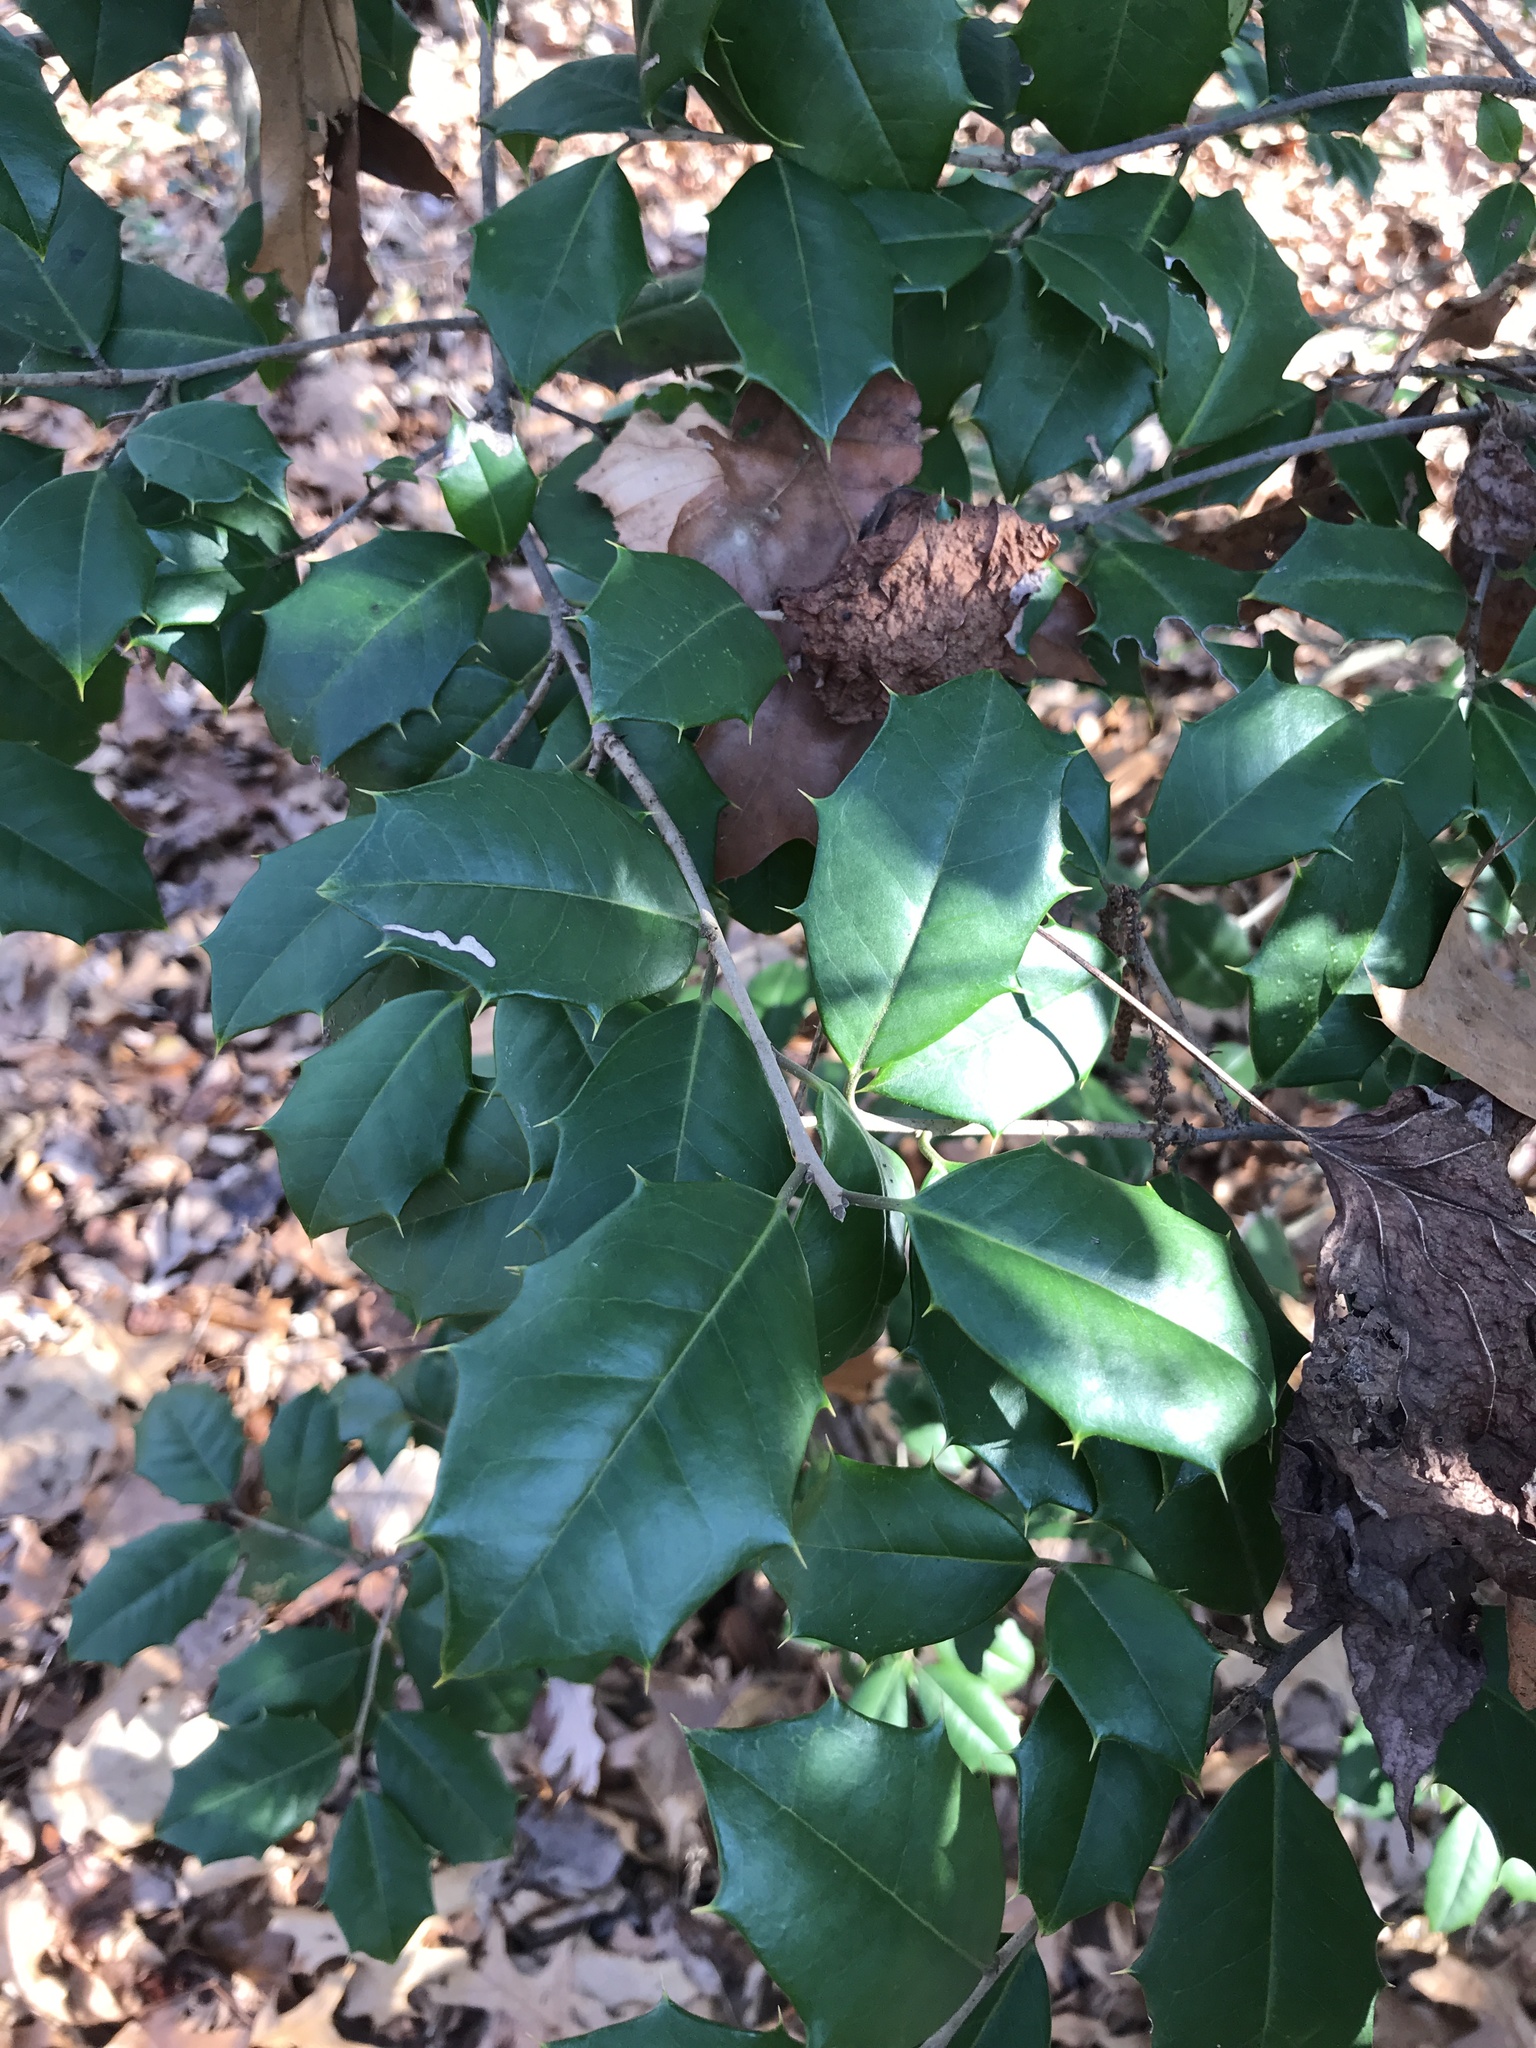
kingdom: Plantae
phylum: Tracheophyta
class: Magnoliopsida
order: Aquifoliales
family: Aquifoliaceae
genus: Ilex
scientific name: Ilex opaca
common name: American holly
